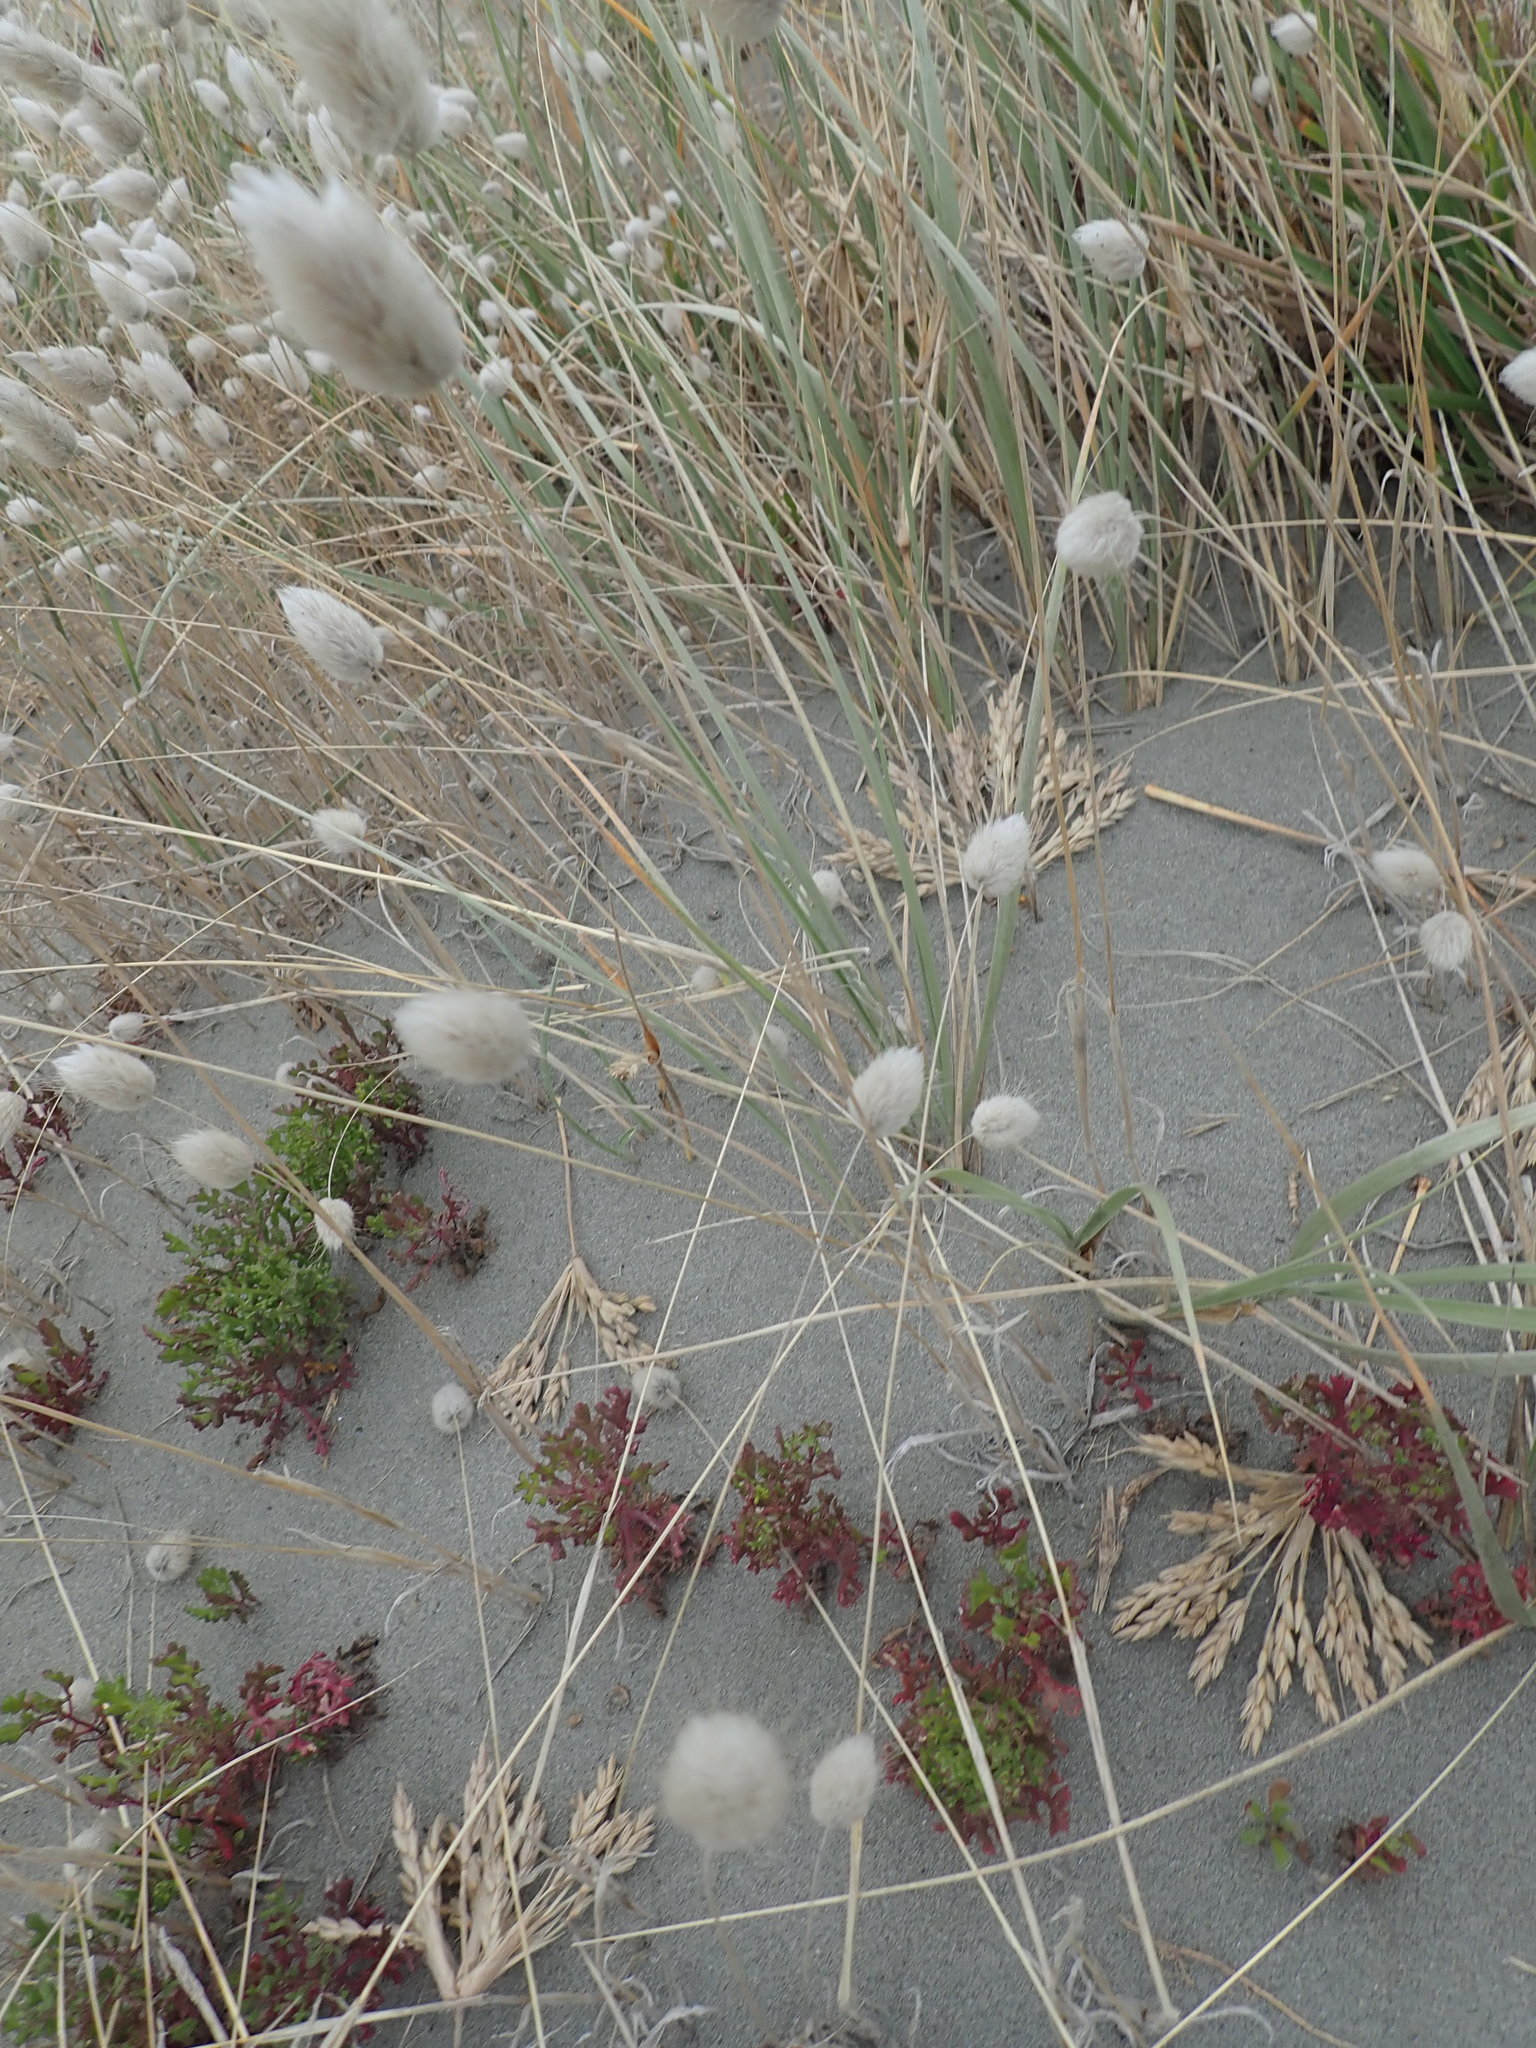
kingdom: Plantae
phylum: Tracheophyta
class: Liliopsida
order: Poales
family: Poaceae
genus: Lagurus
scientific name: Lagurus ovatus
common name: Hare's-tail
